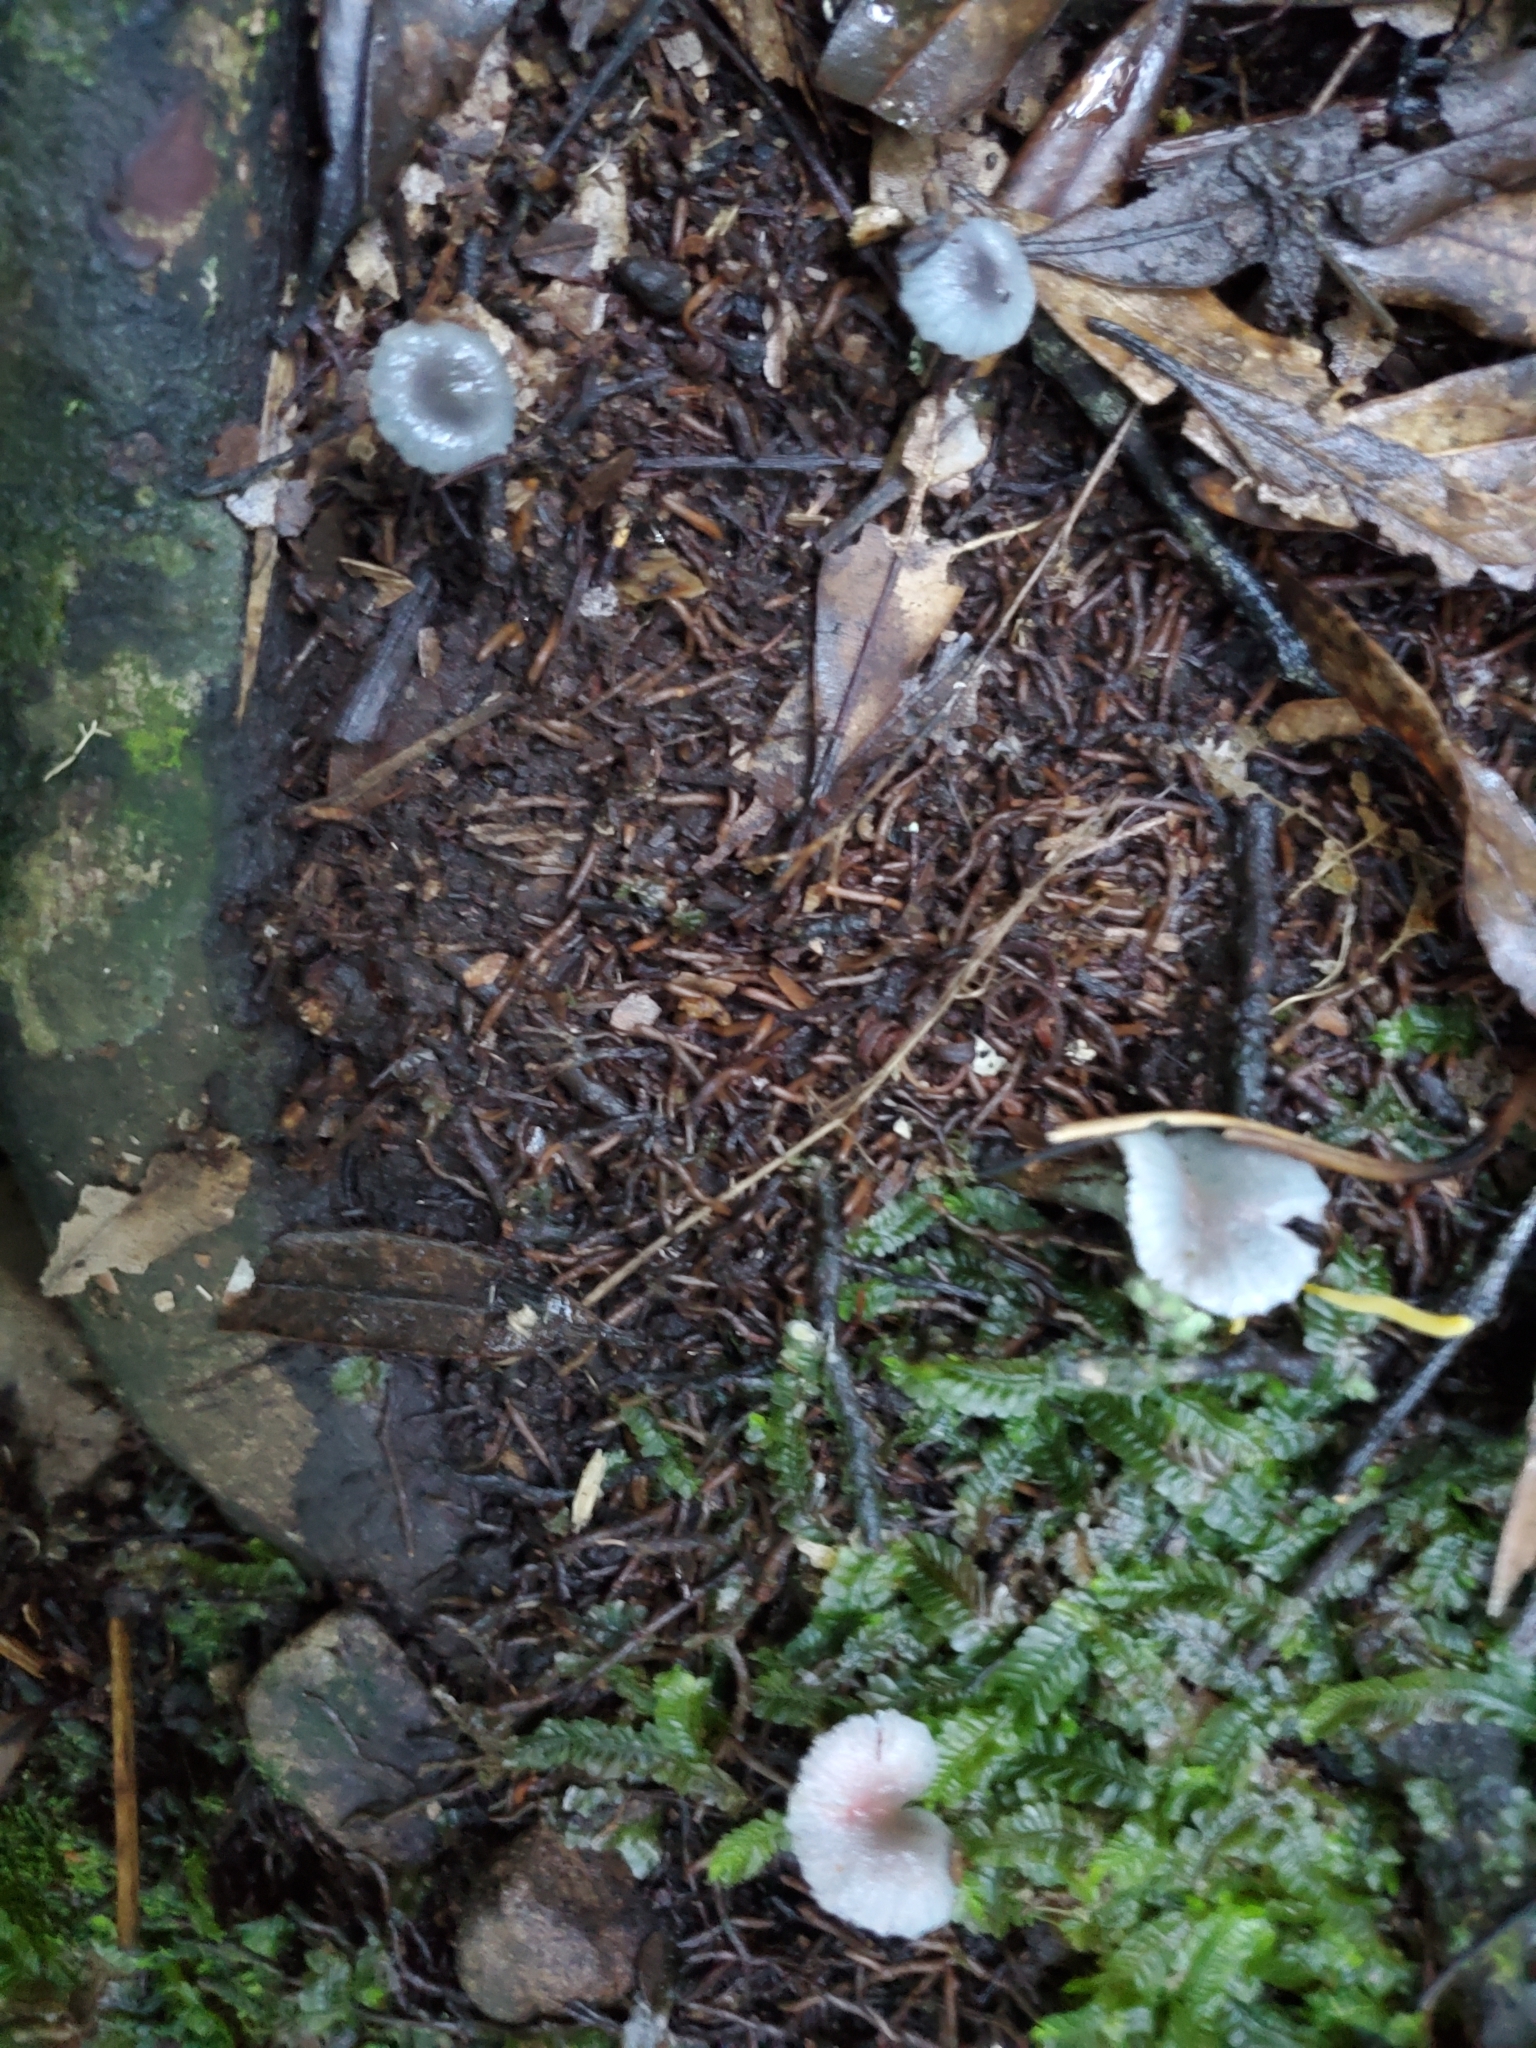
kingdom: Fungi
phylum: Basidiomycota
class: Agaricomycetes
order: Agaricales
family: Hygrophoraceae
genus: Gliophorus
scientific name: Gliophorus lilacipes
